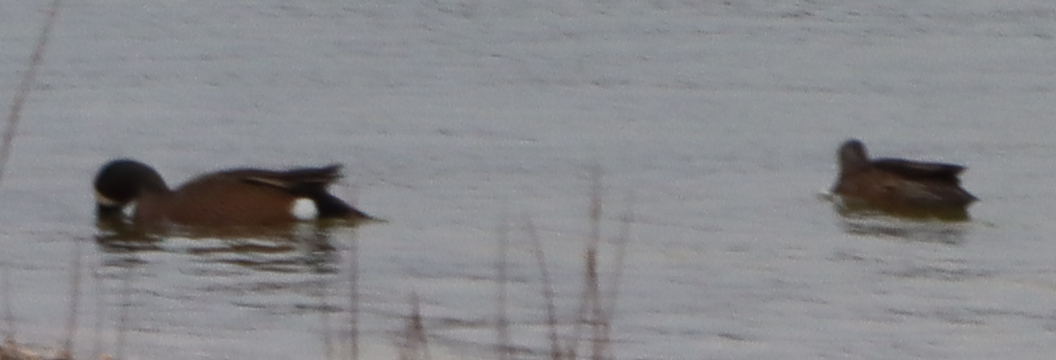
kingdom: Animalia
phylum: Chordata
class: Aves
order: Anseriformes
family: Anatidae
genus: Spatula
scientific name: Spatula discors
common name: Blue-winged teal
